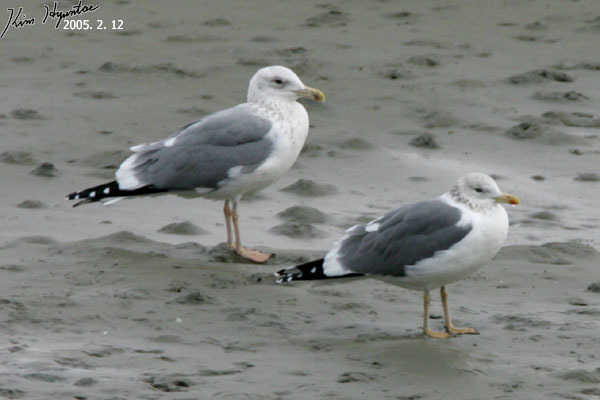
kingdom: Animalia
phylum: Chordata
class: Aves
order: Charadriiformes
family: Laridae
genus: Larus
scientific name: Larus fuscus
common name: Lesser black-backed gull
